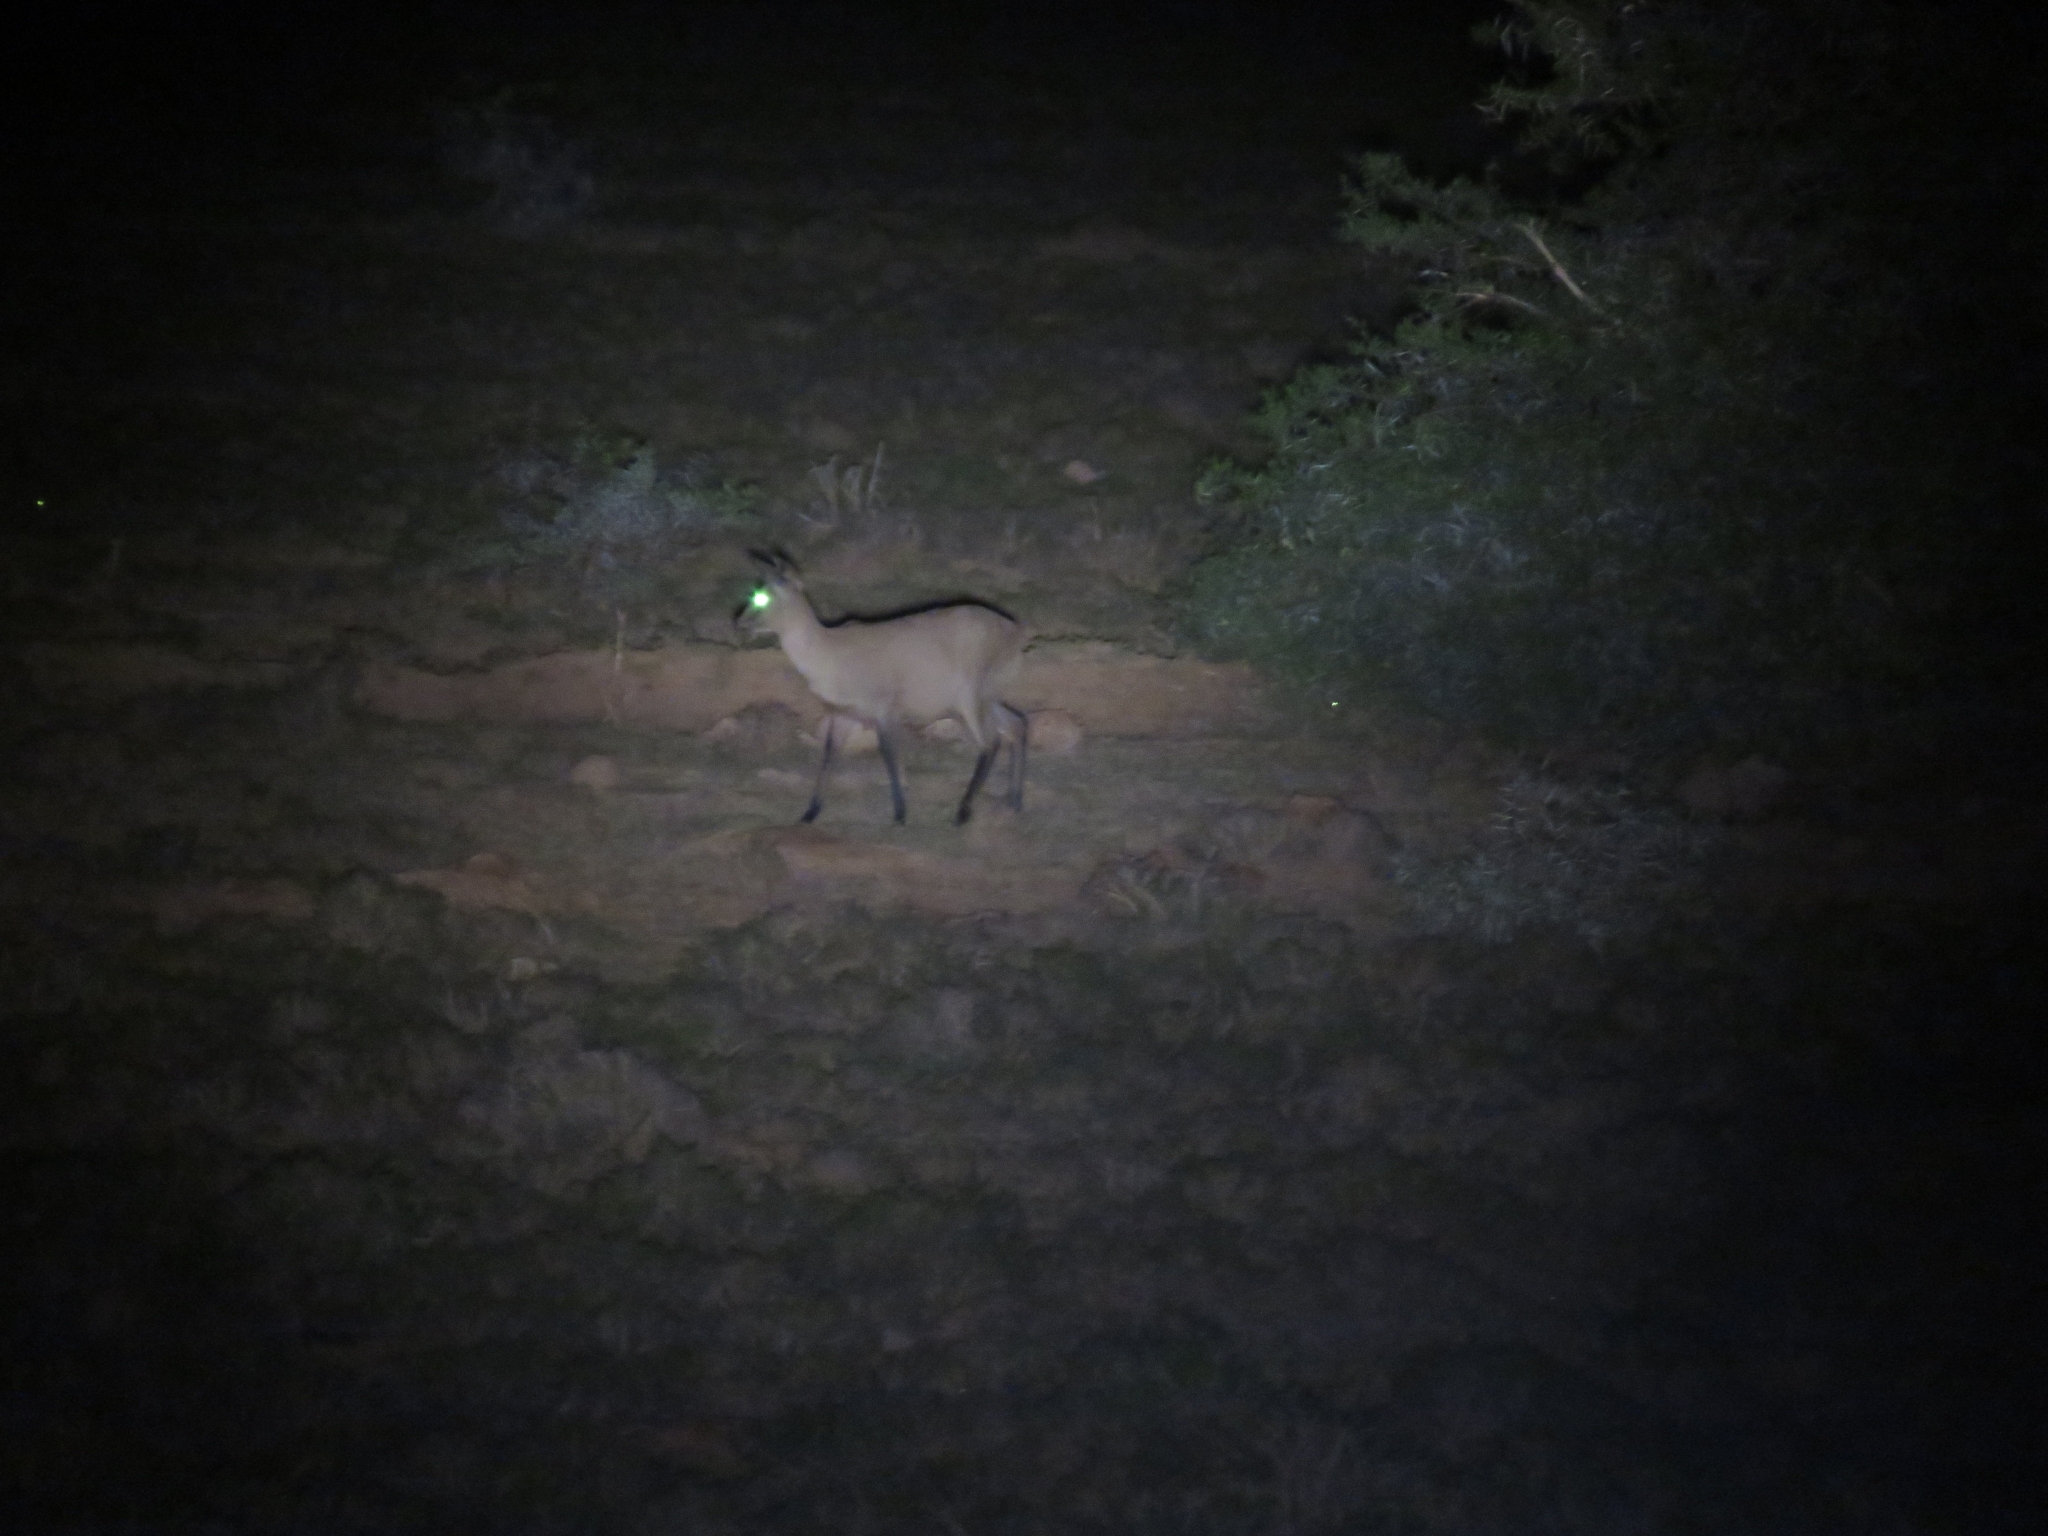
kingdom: Animalia
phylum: Chordata
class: Mammalia
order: Artiodactyla
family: Bovidae
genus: Sylvicapra
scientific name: Sylvicapra grimmia
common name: Bush duiker
